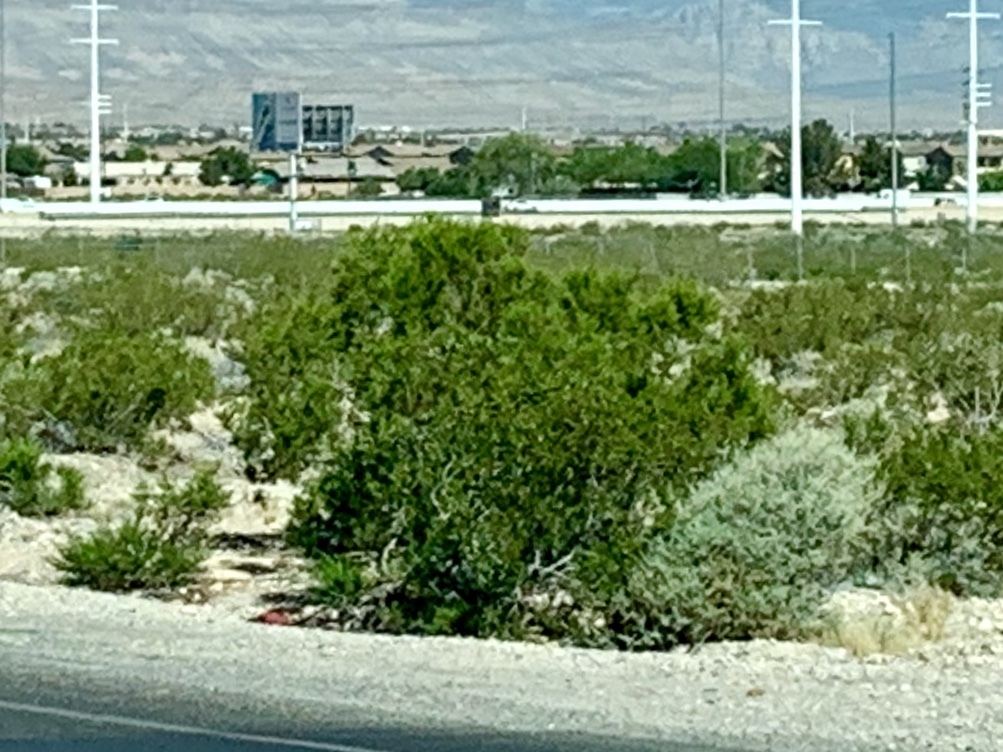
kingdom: Plantae
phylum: Tracheophyta
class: Magnoliopsida
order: Zygophyllales
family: Zygophyllaceae
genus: Larrea
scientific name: Larrea tridentata
